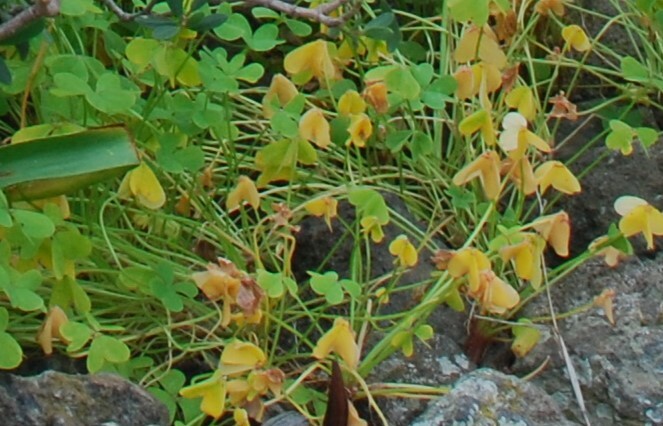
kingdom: Plantae
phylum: Tracheophyta
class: Magnoliopsida
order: Oxalidales
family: Oxalidaceae
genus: Oxalis
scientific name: Oxalis pes-caprae
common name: Bermuda-buttercup
